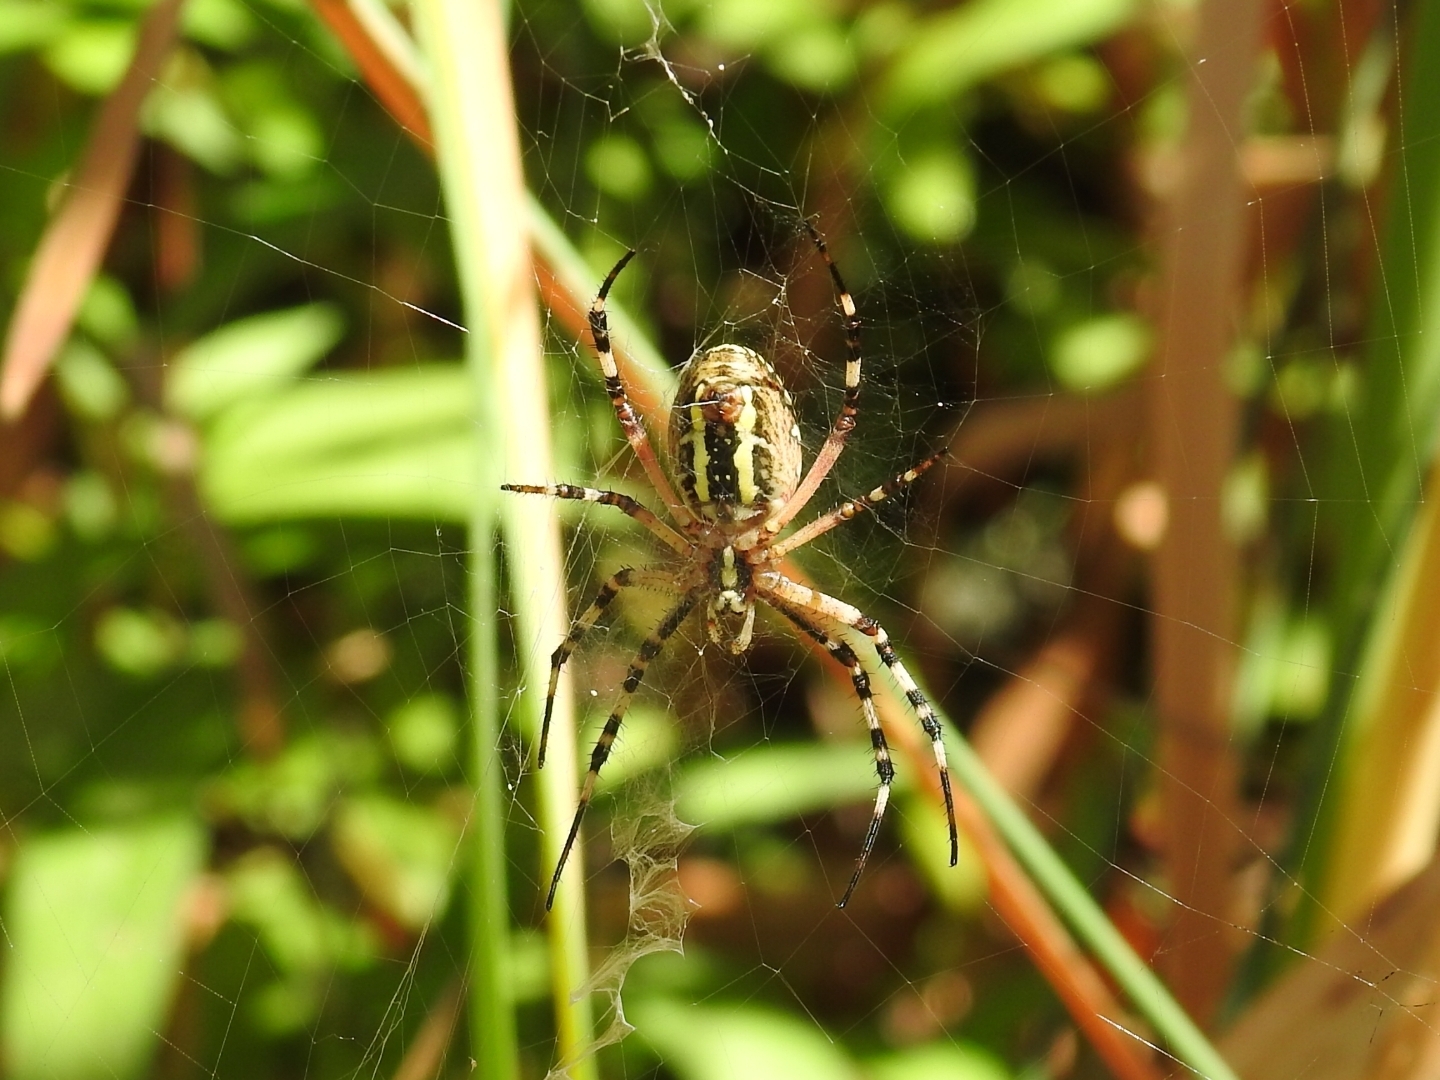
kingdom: Animalia
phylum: Arthropoda
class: Arachnida
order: Araneae
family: Araneidae
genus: Argiope
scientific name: Argiope bruennichi
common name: Wasp spider
